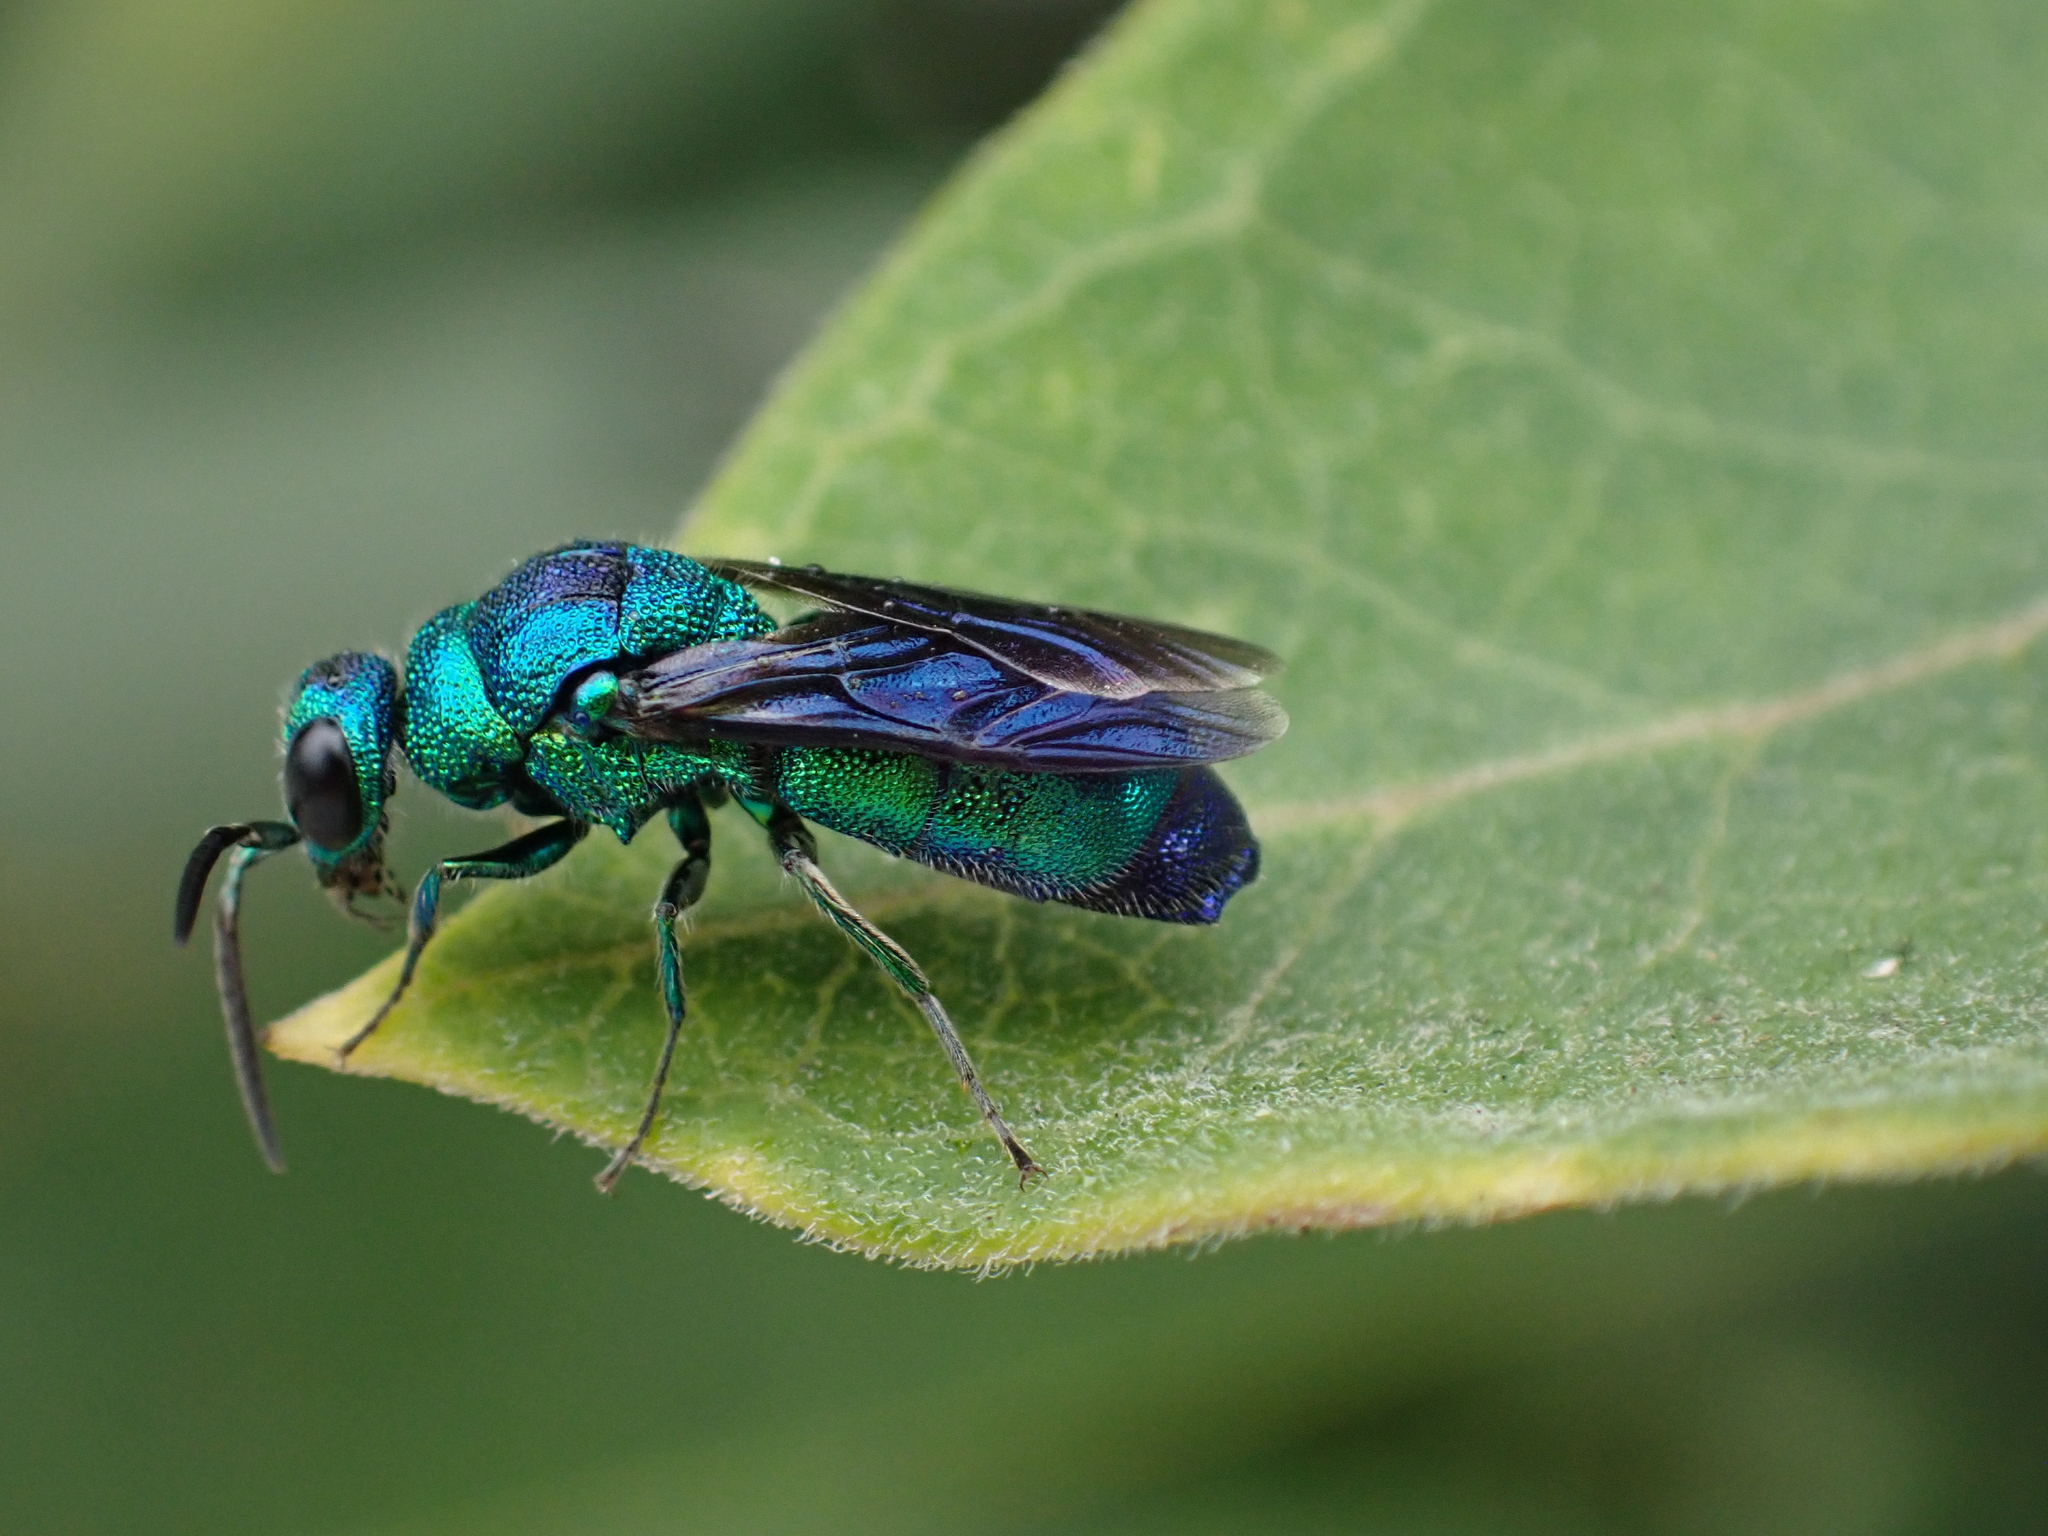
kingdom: Animalia
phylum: Arthropoda
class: Insecta
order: Hymenoptera
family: Chrysididae
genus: Chrysis
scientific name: Chrysis angolensis
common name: Cuckoo wasp
